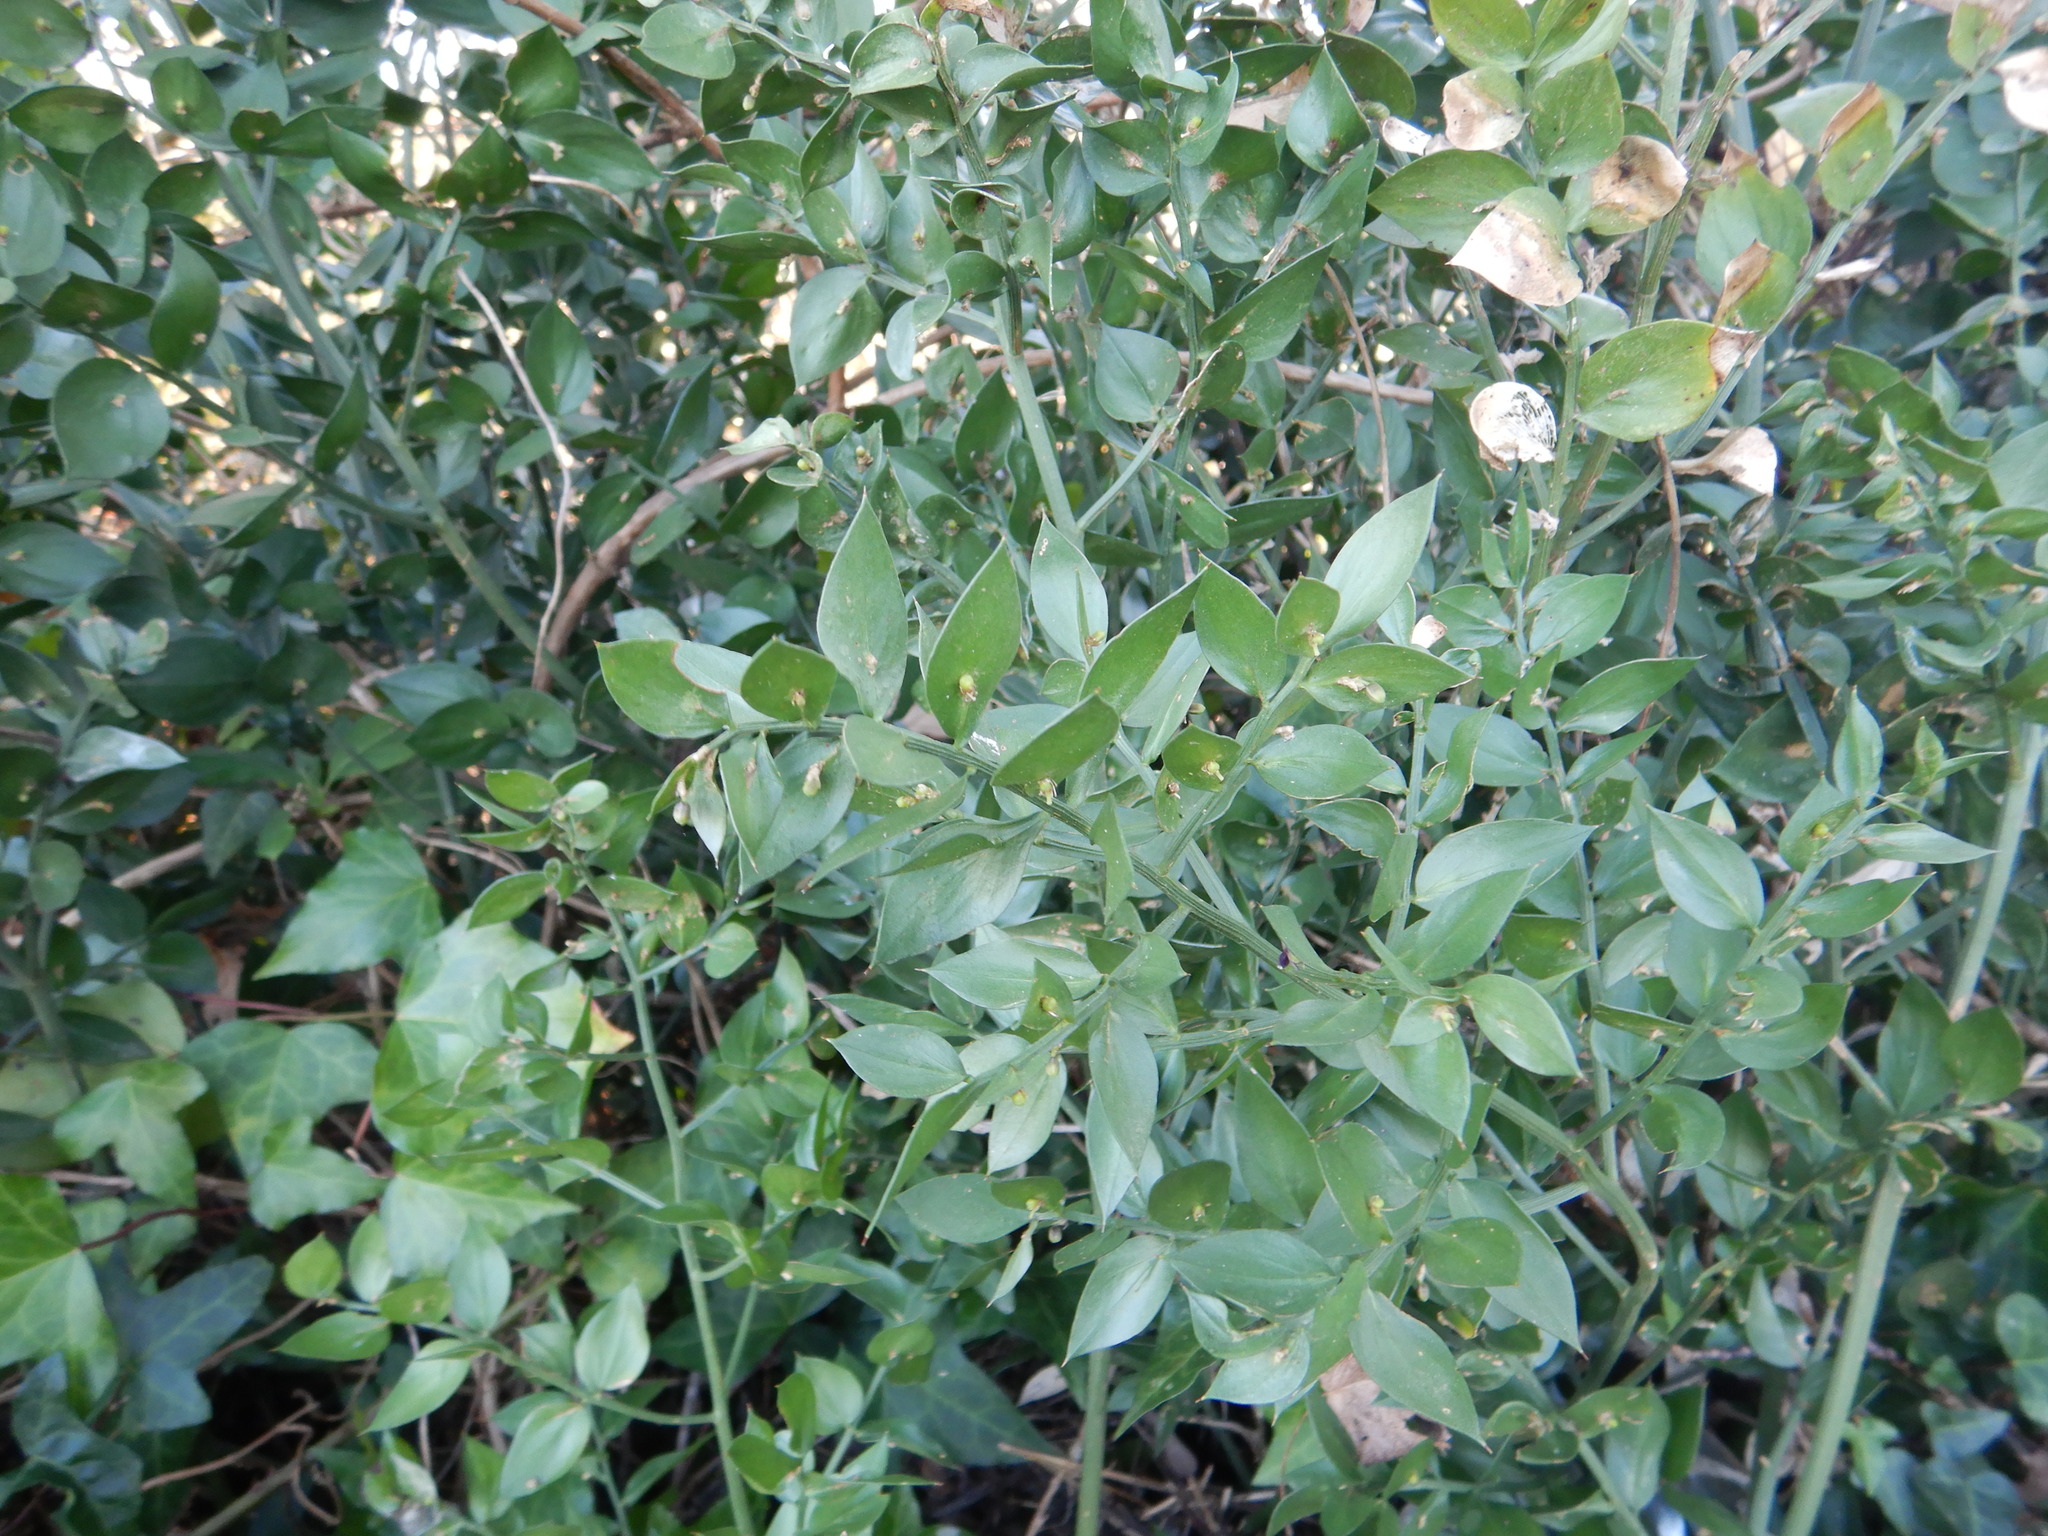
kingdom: Plantae
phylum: Tracheophyta
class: Liliopsida
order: Asparagales
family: Asparagaceae
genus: Ruscus
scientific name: Ruscus aculeatus
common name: Butcher's-broom
